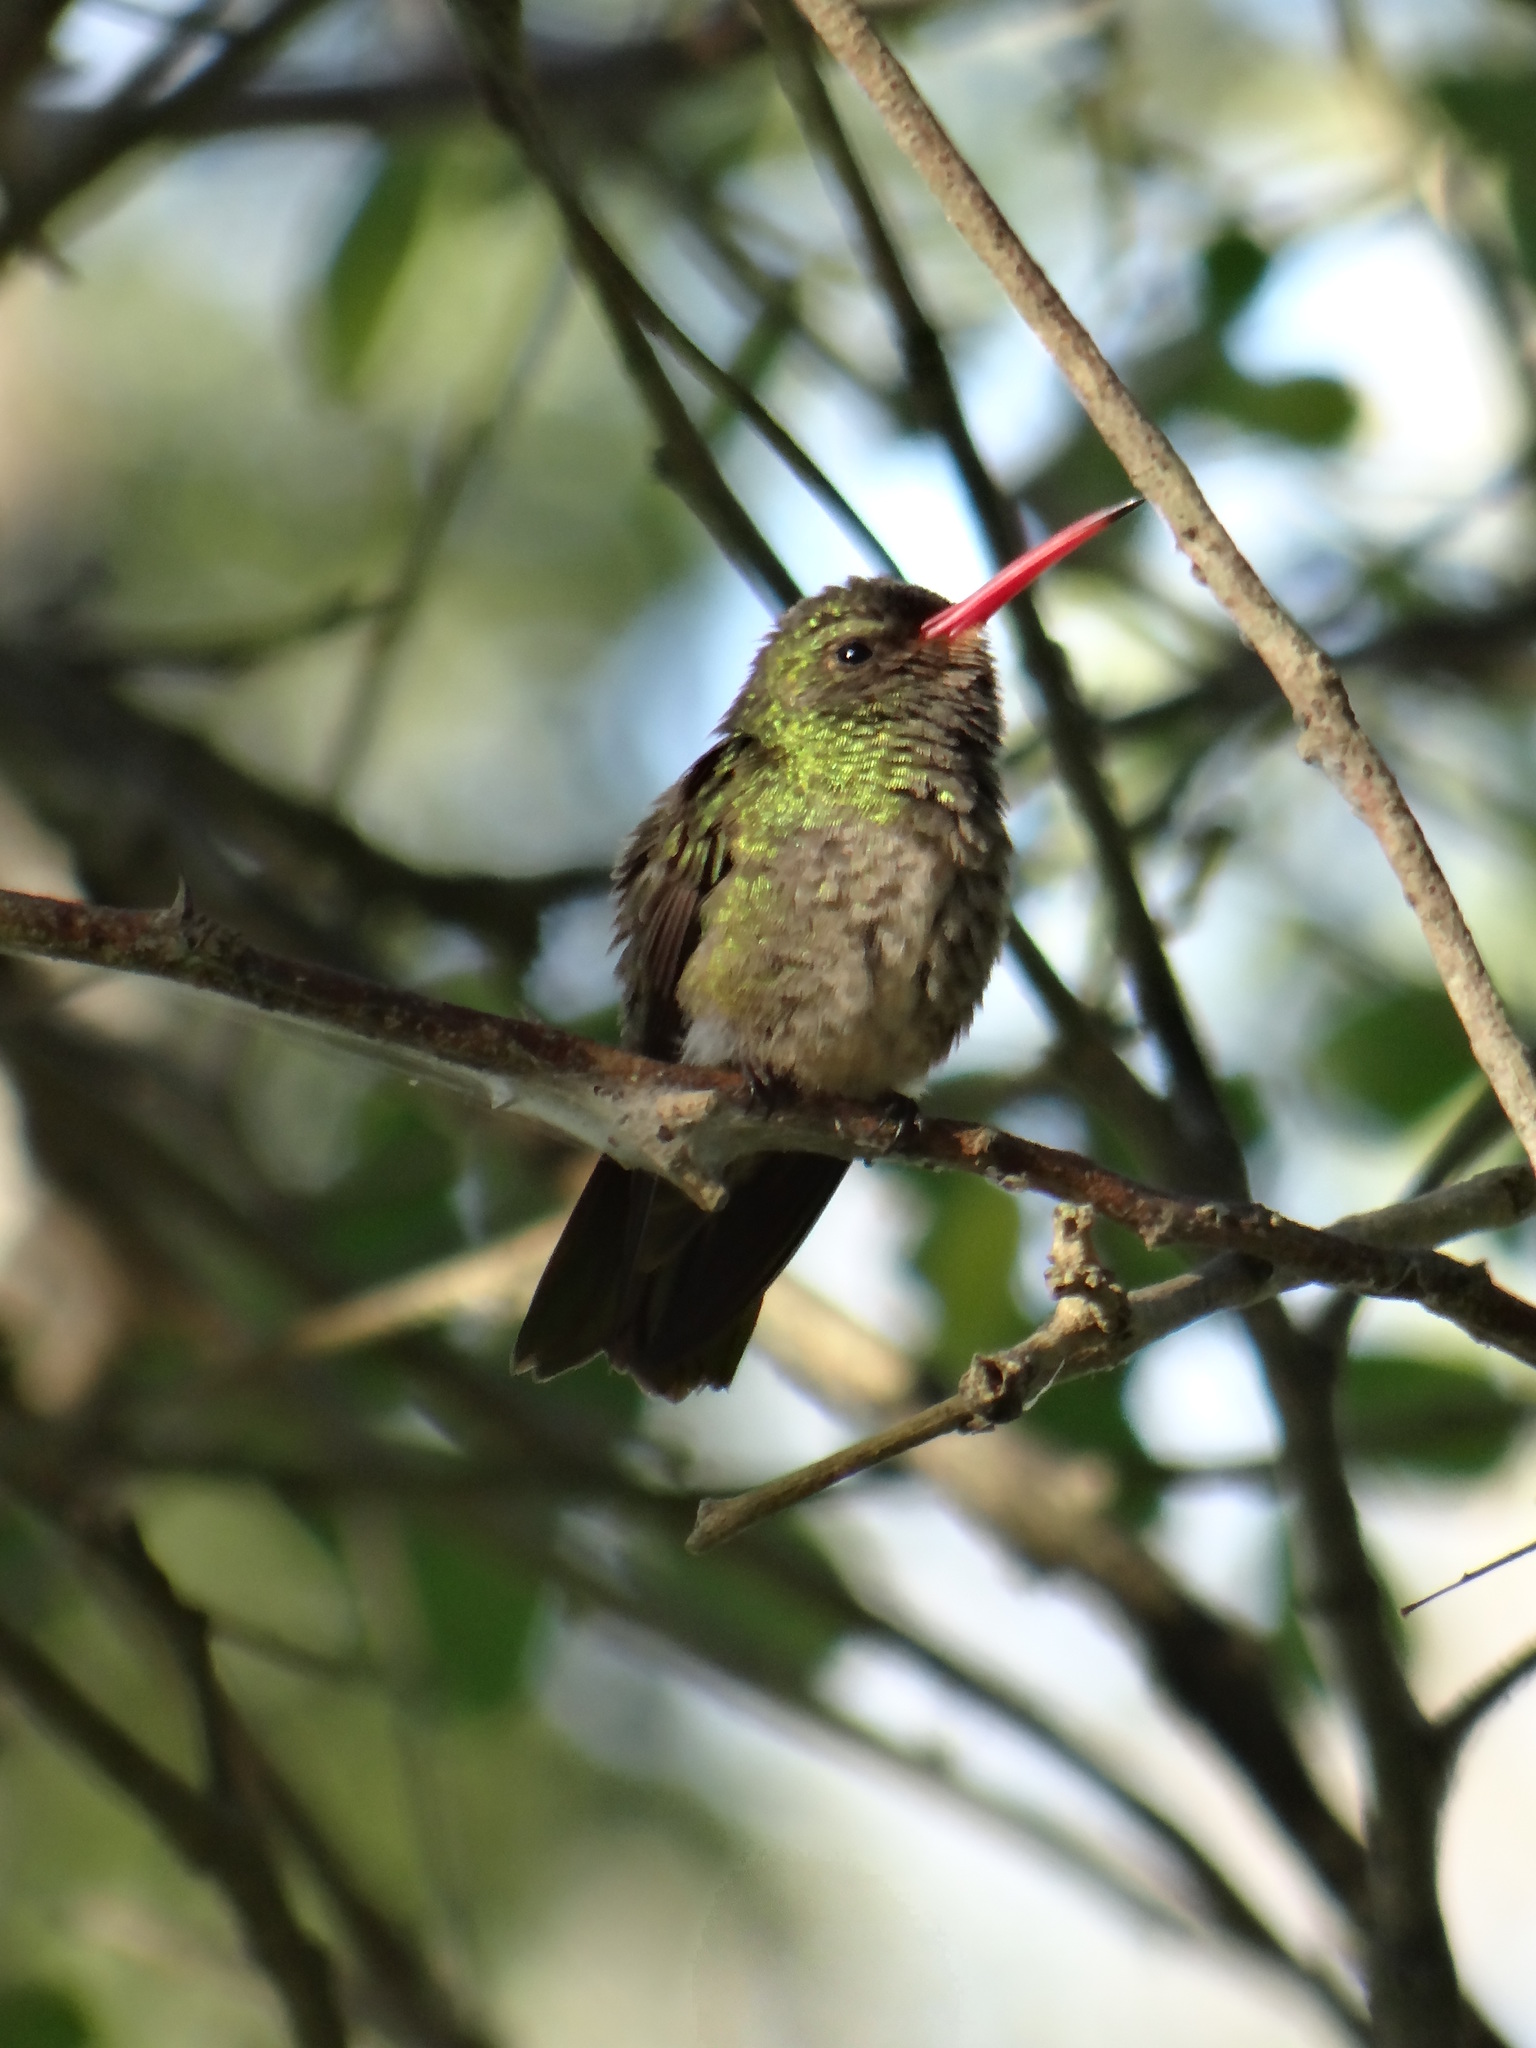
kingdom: Animalia
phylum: Chordata
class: Aves
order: Apodiformes
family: Trochilidae
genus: Hylocharis
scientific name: Hylocharis chrysura
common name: Gilded sapphire
